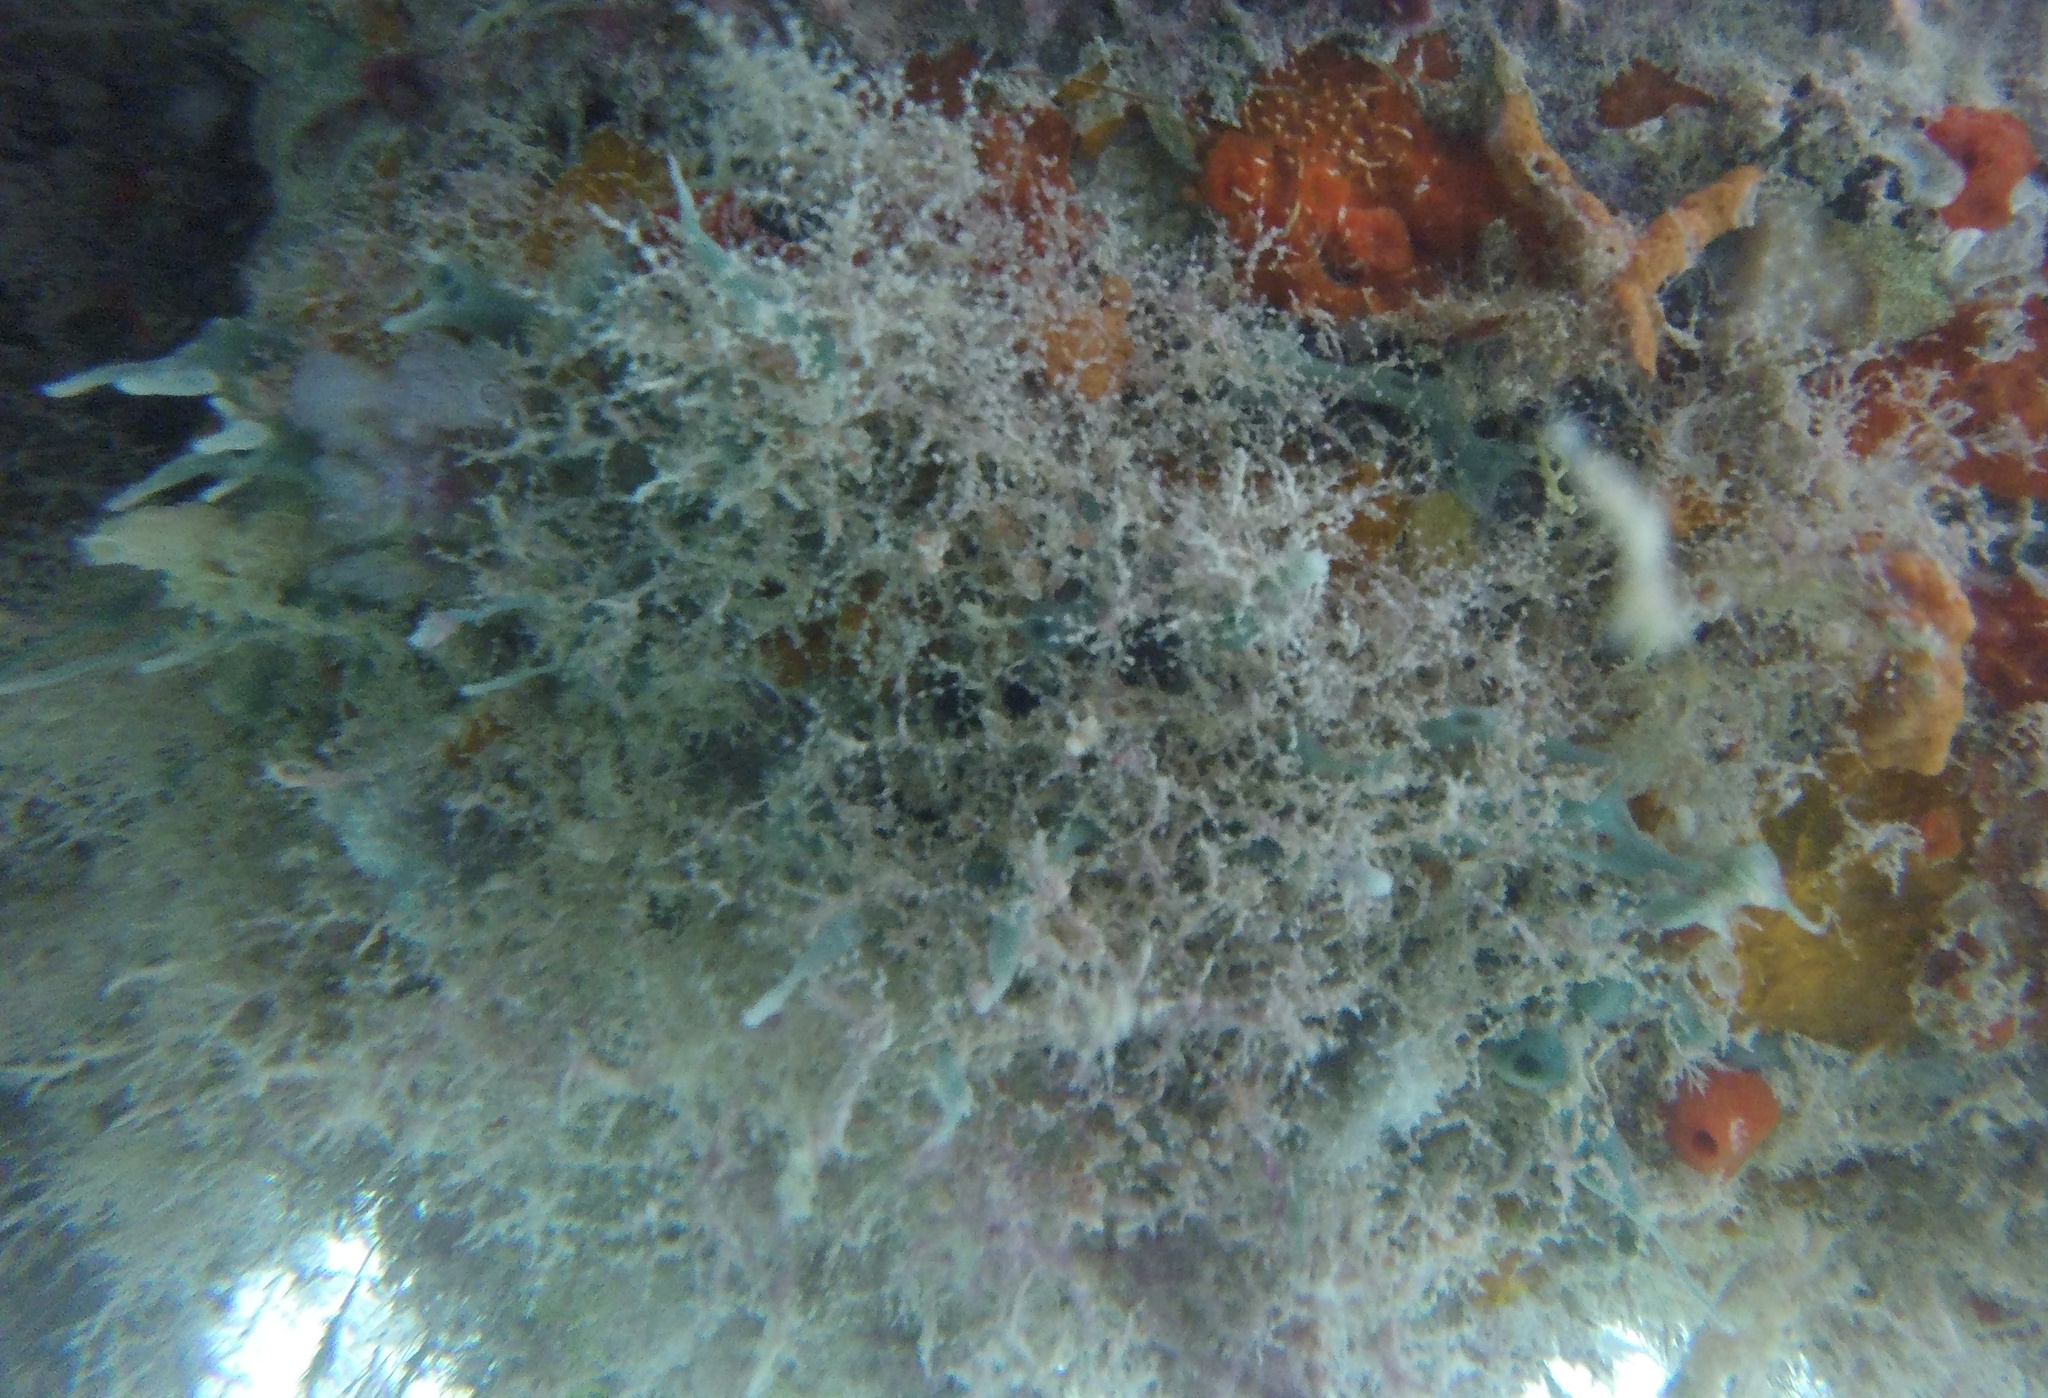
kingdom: Animalia
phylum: Porifera
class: Demospongiae
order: Haplosclerida
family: Chalinidae
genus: Haliclona
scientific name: Haliclona vermeuleni
